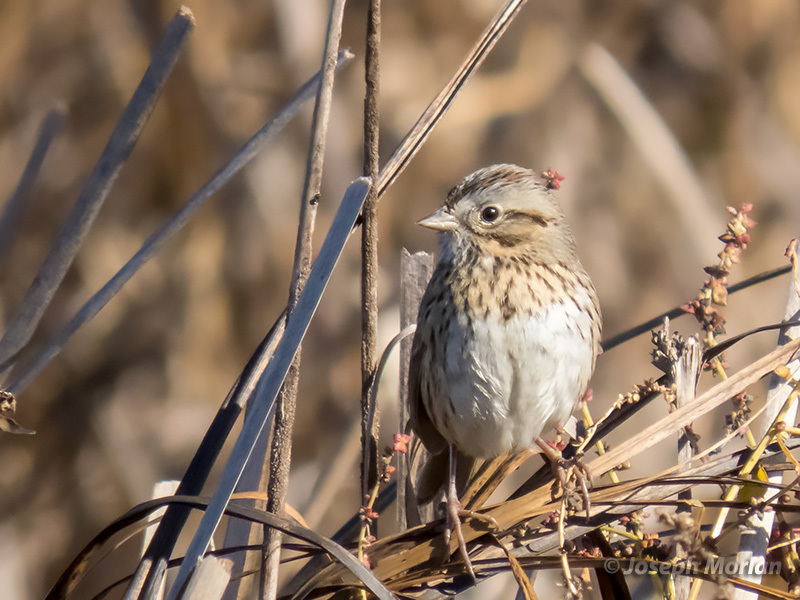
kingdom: Animalia
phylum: Chordata
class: Aves
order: Passeriformes
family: Passerellidae
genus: Melospiza
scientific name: Melospiza lincolnii
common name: Lincoln's sparrow
